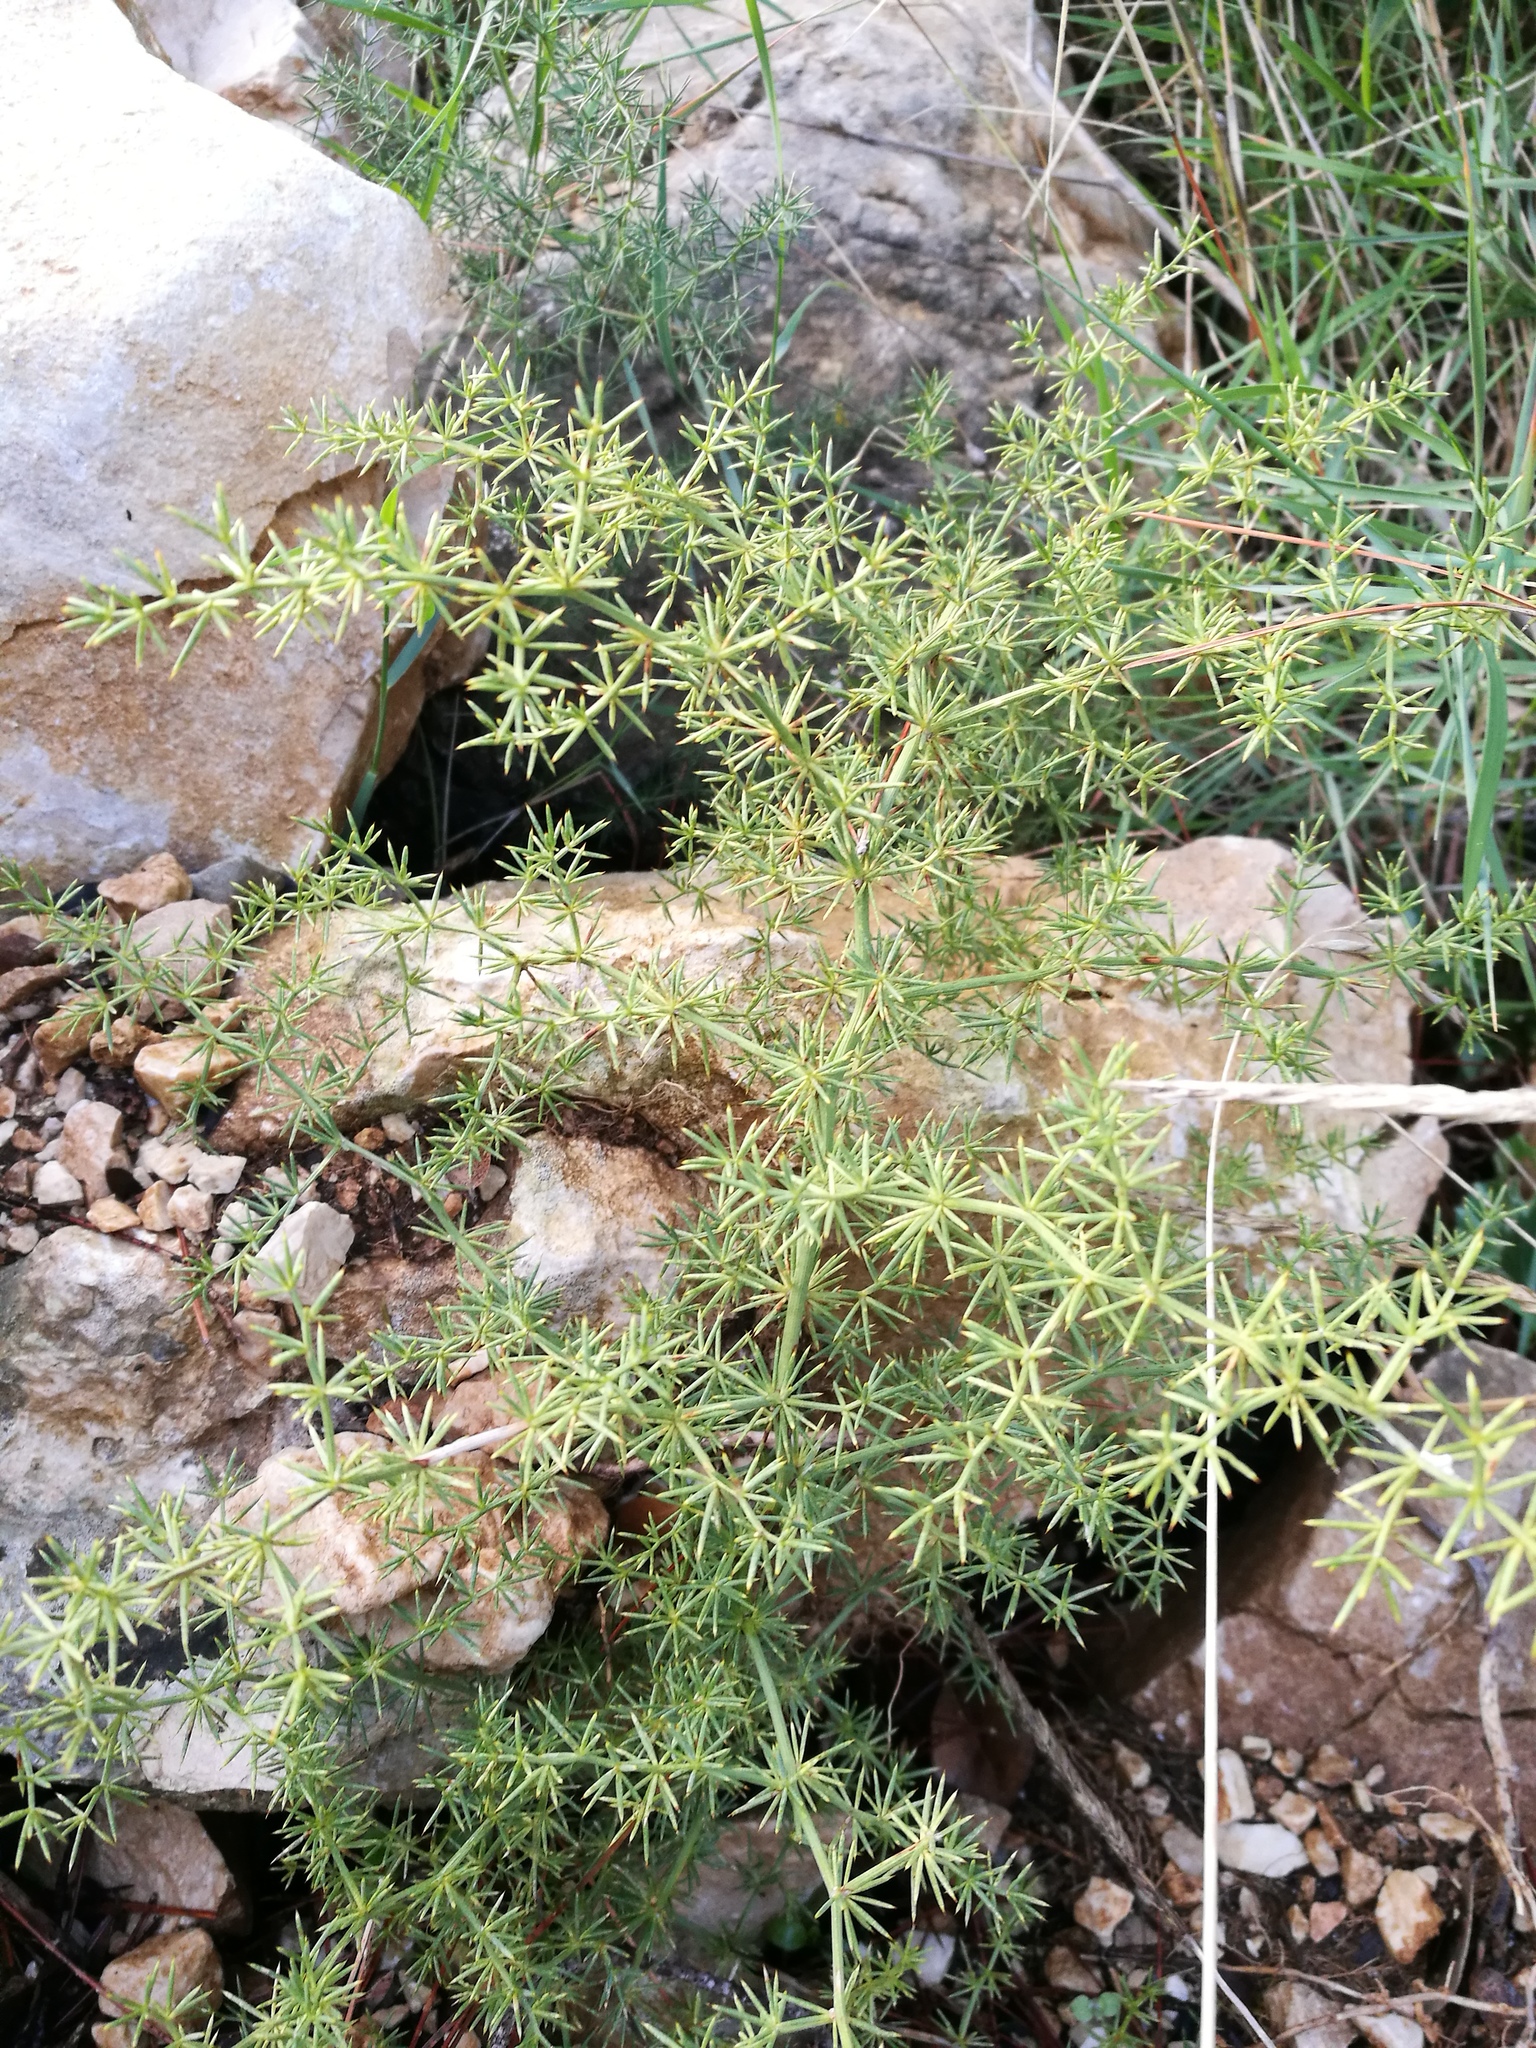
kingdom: Plantae
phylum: Tracheophyta
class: Liliopsida
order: Asparagales
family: Asparagaceae
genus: Asparagus
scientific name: Asparagus acutifolius
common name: Wild asparagus
